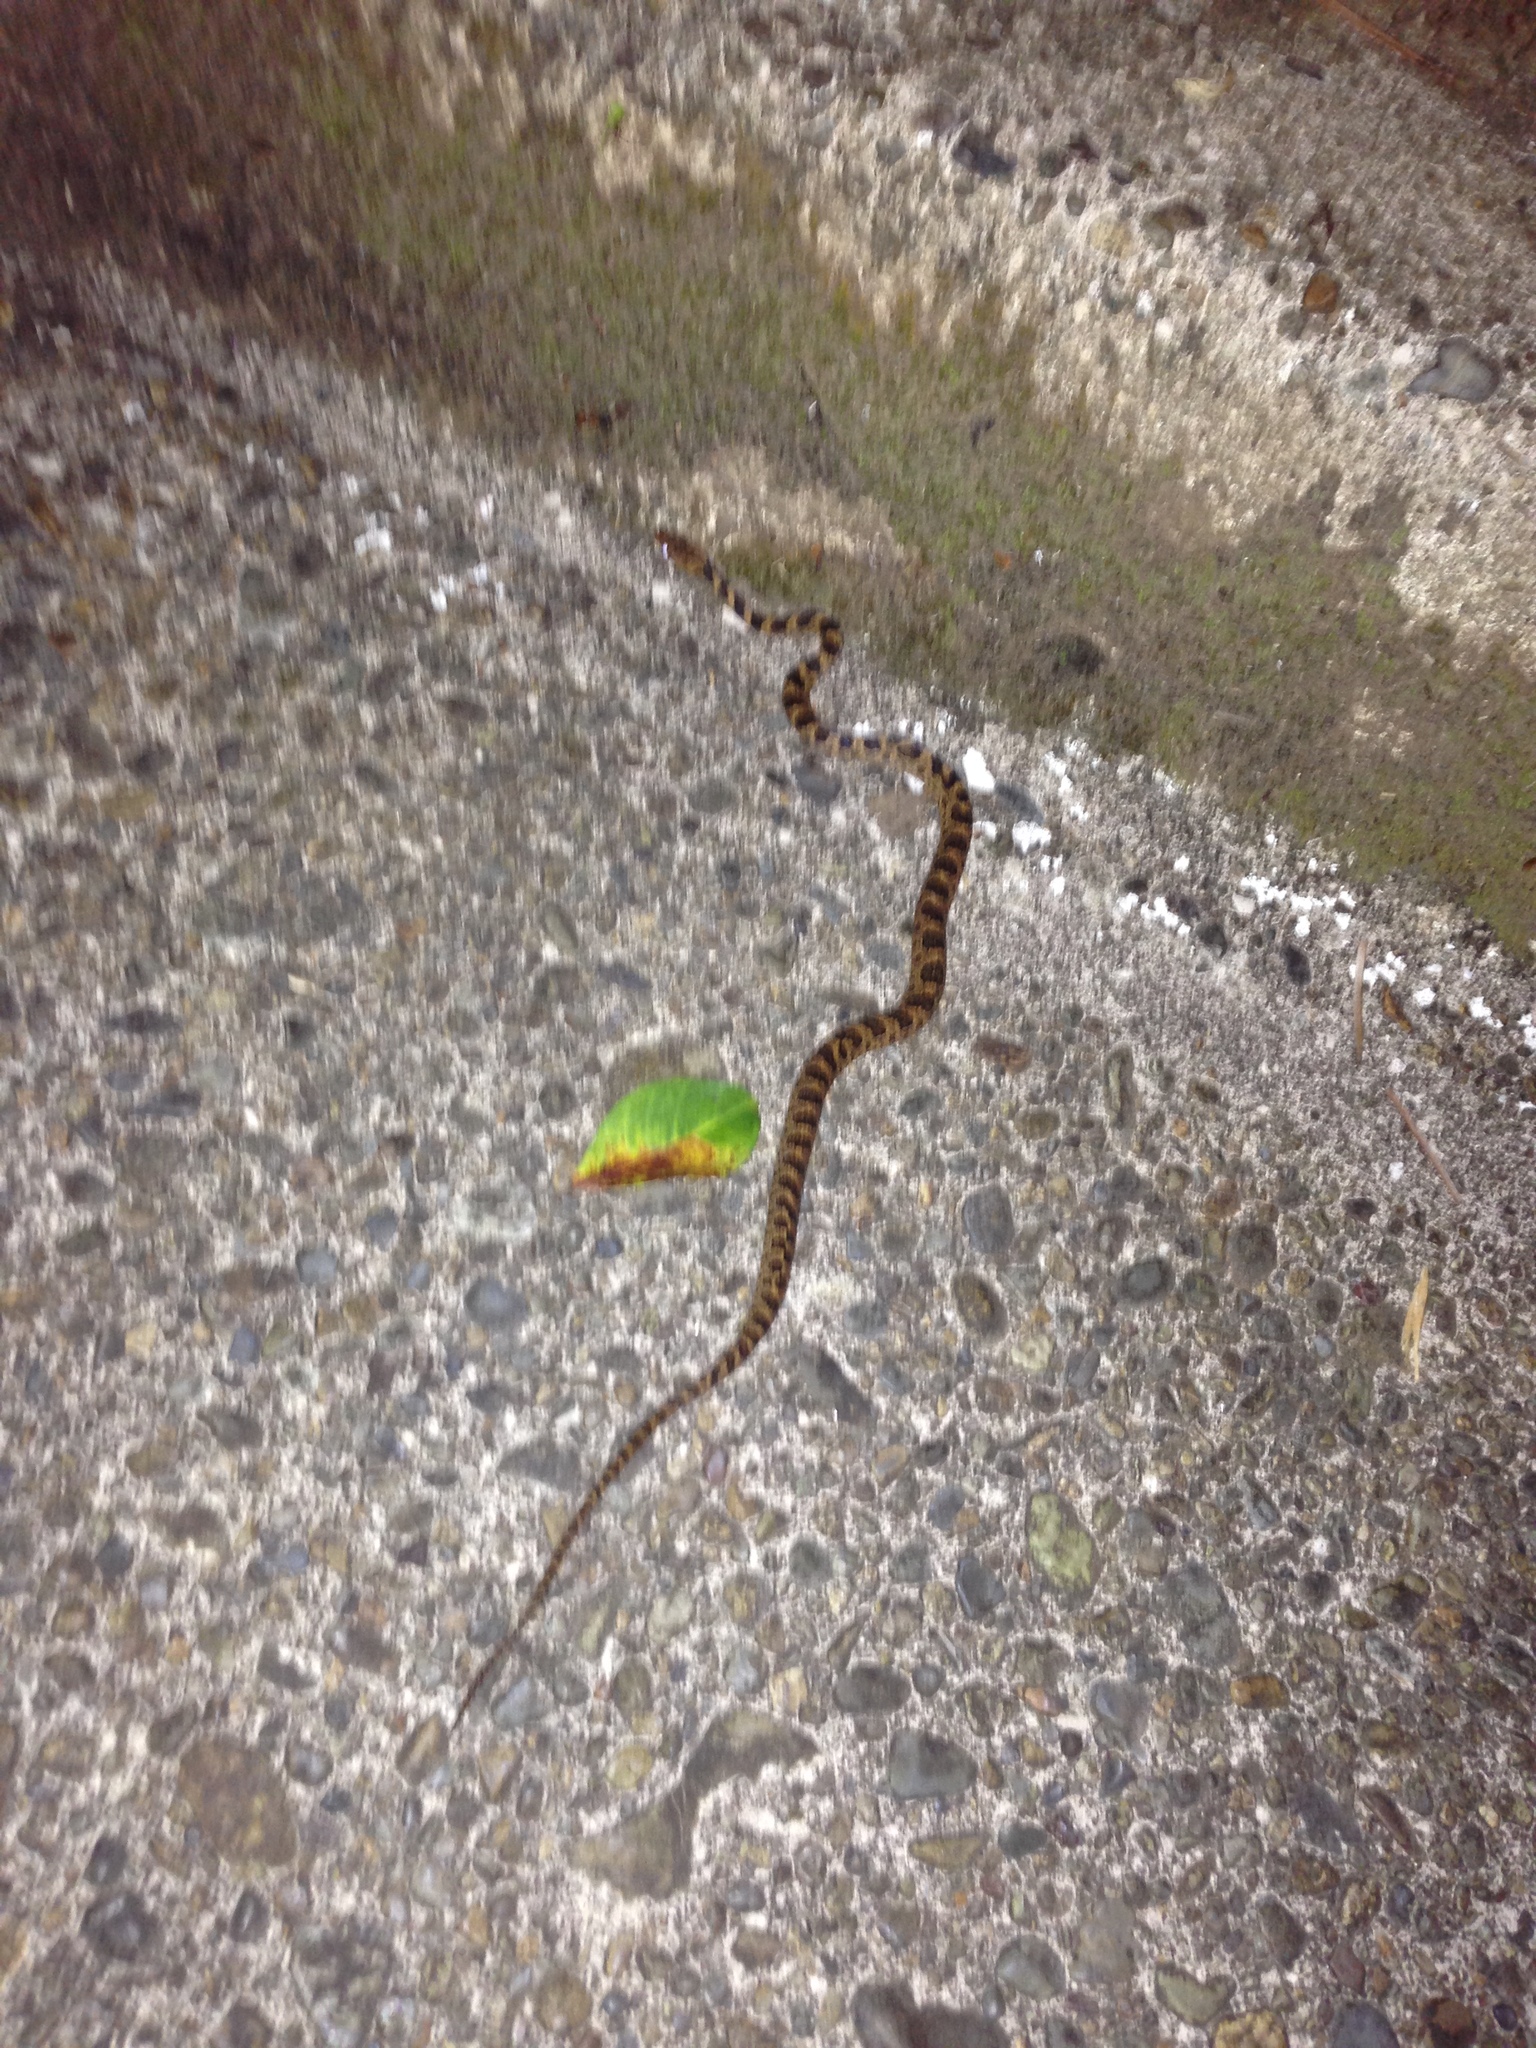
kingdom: Animalia
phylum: Chordata
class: Squamata
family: Colubridae
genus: Leptodeira
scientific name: Leptodeira ornata
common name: Northern cat-eyed snake
